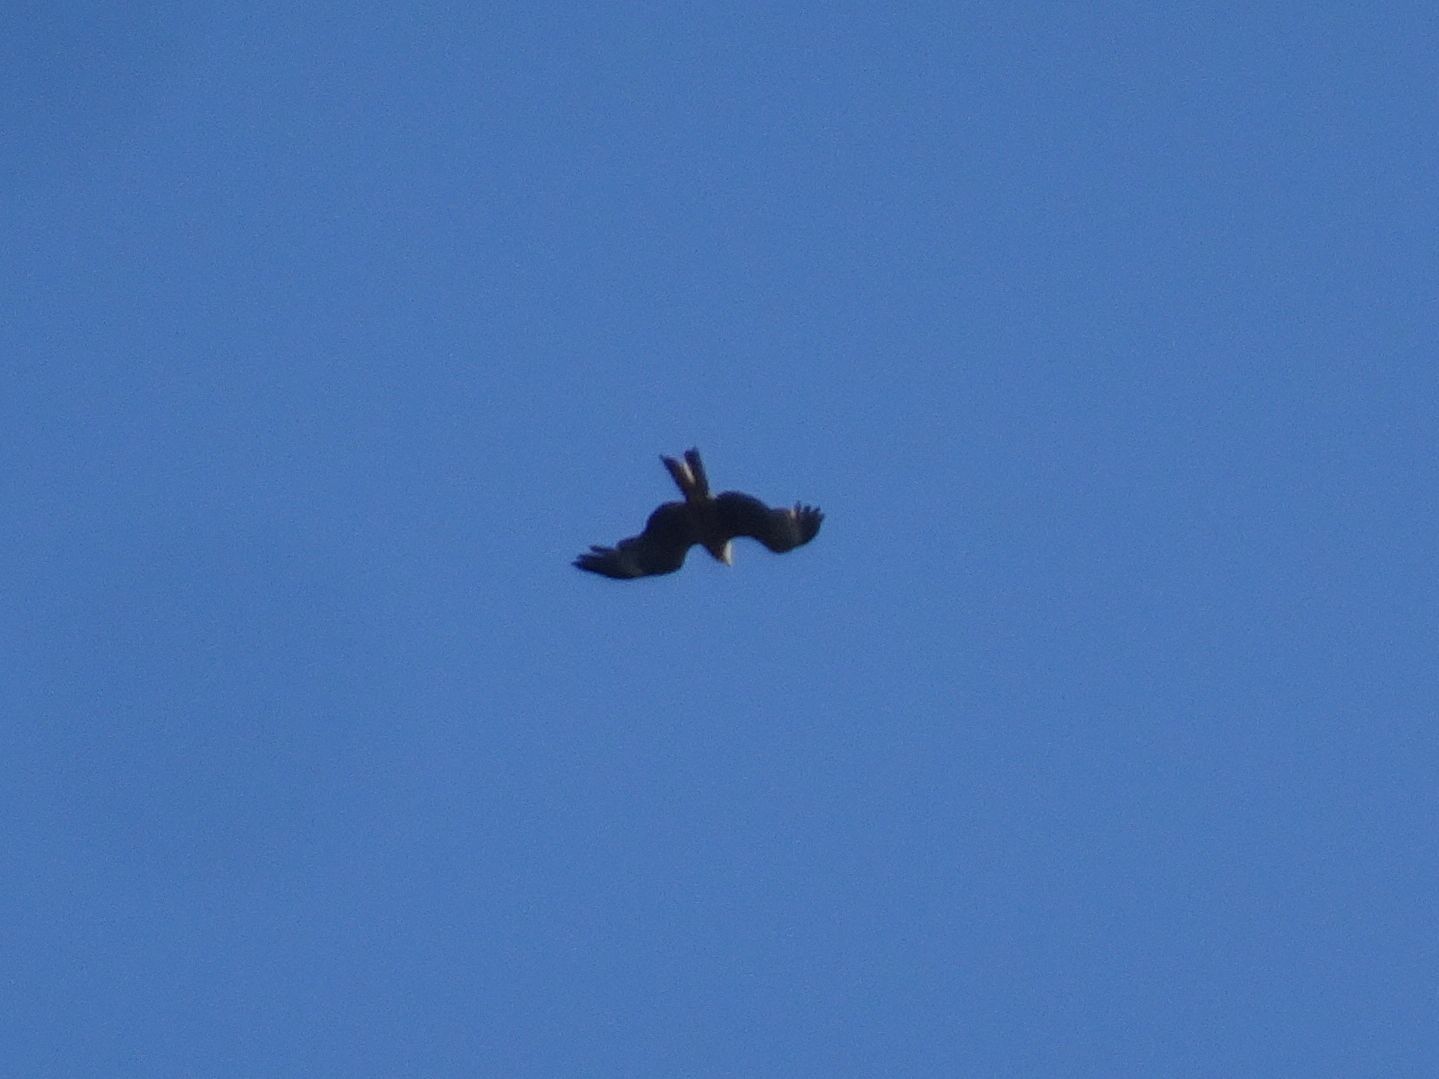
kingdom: Animalia
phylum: Chordata
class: Aves
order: Accipitriformes
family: Accipitridae
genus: Milvus
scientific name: Milvus migrans
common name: Black kite
